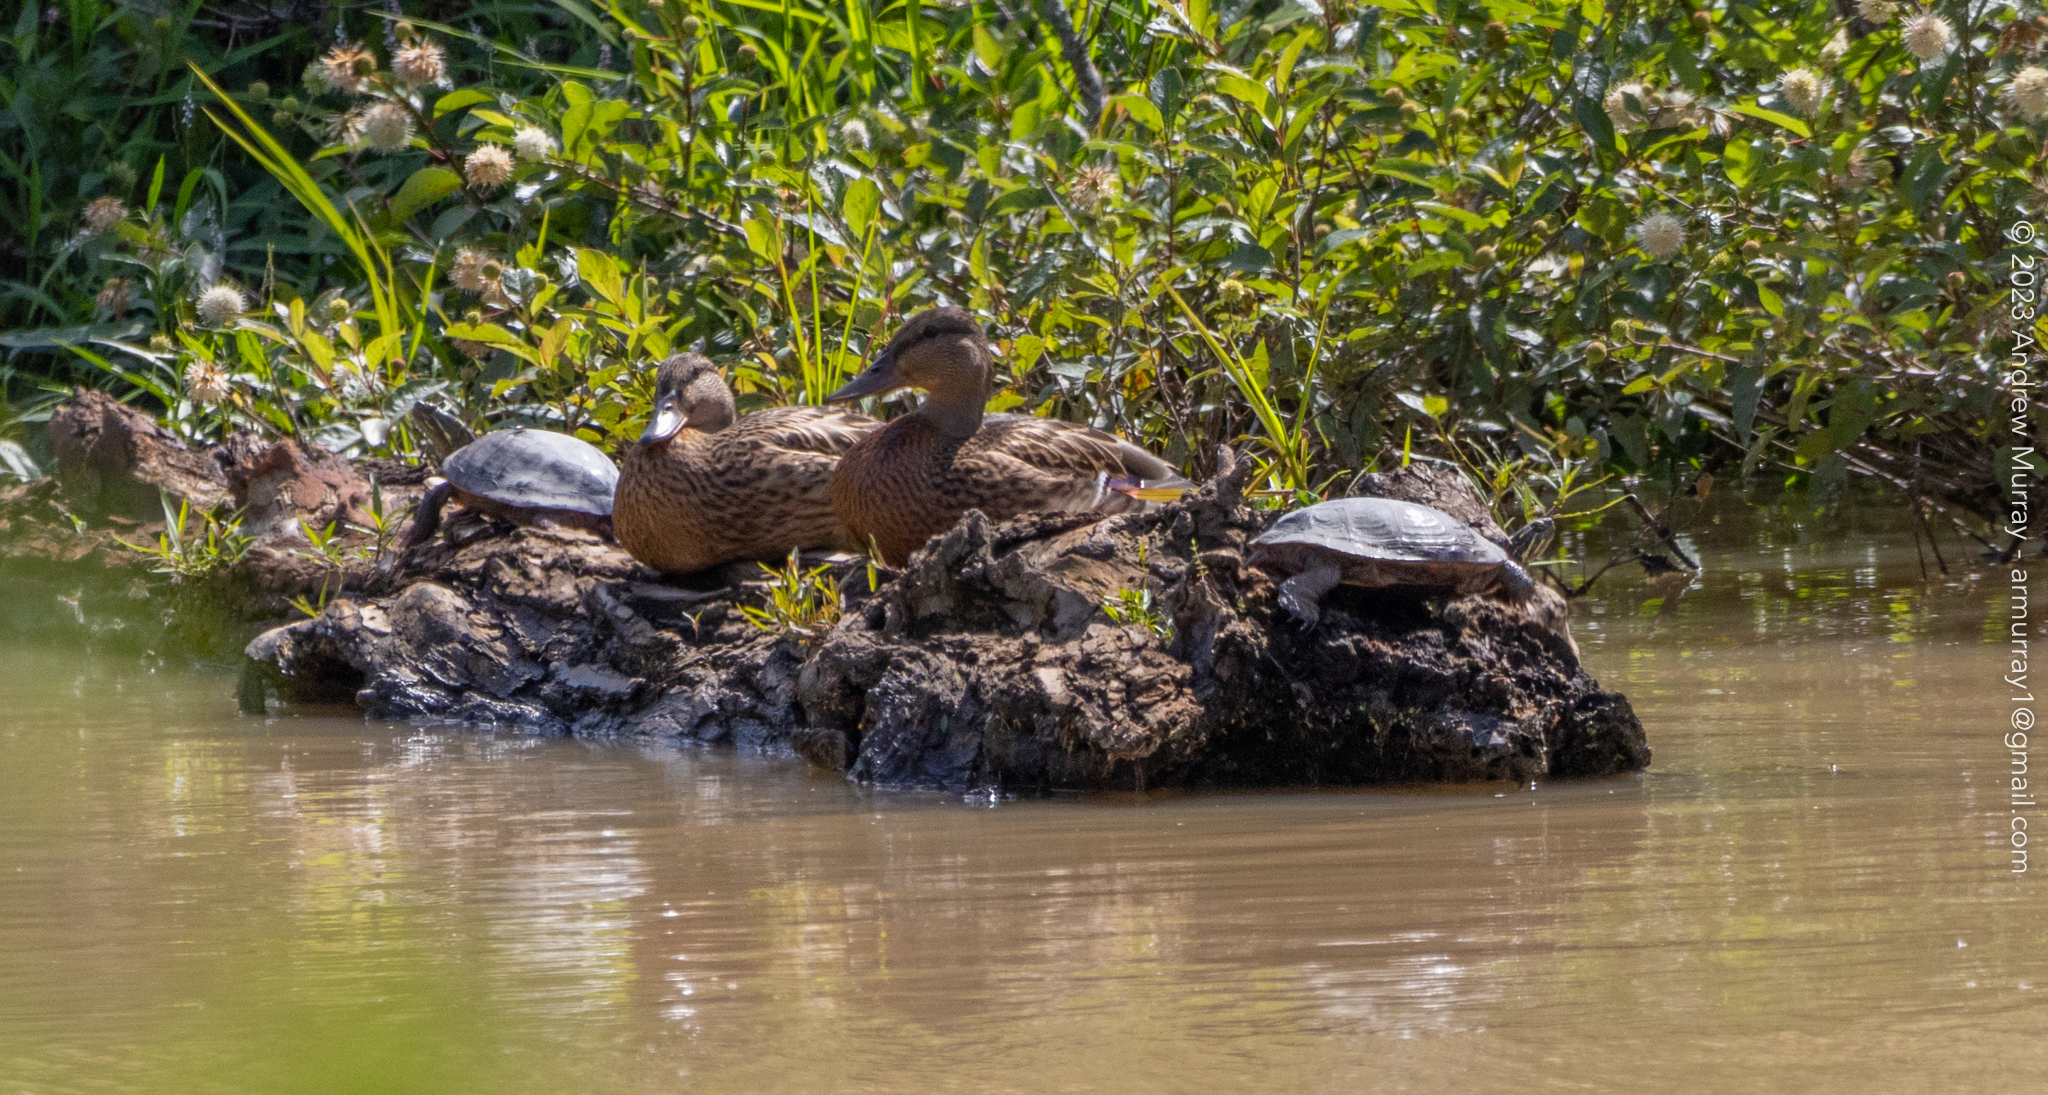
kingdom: Animalia
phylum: Chordata
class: Testudines
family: Emydidae
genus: Chrysemys
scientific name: Chrysemys picta
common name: Painted turtle
